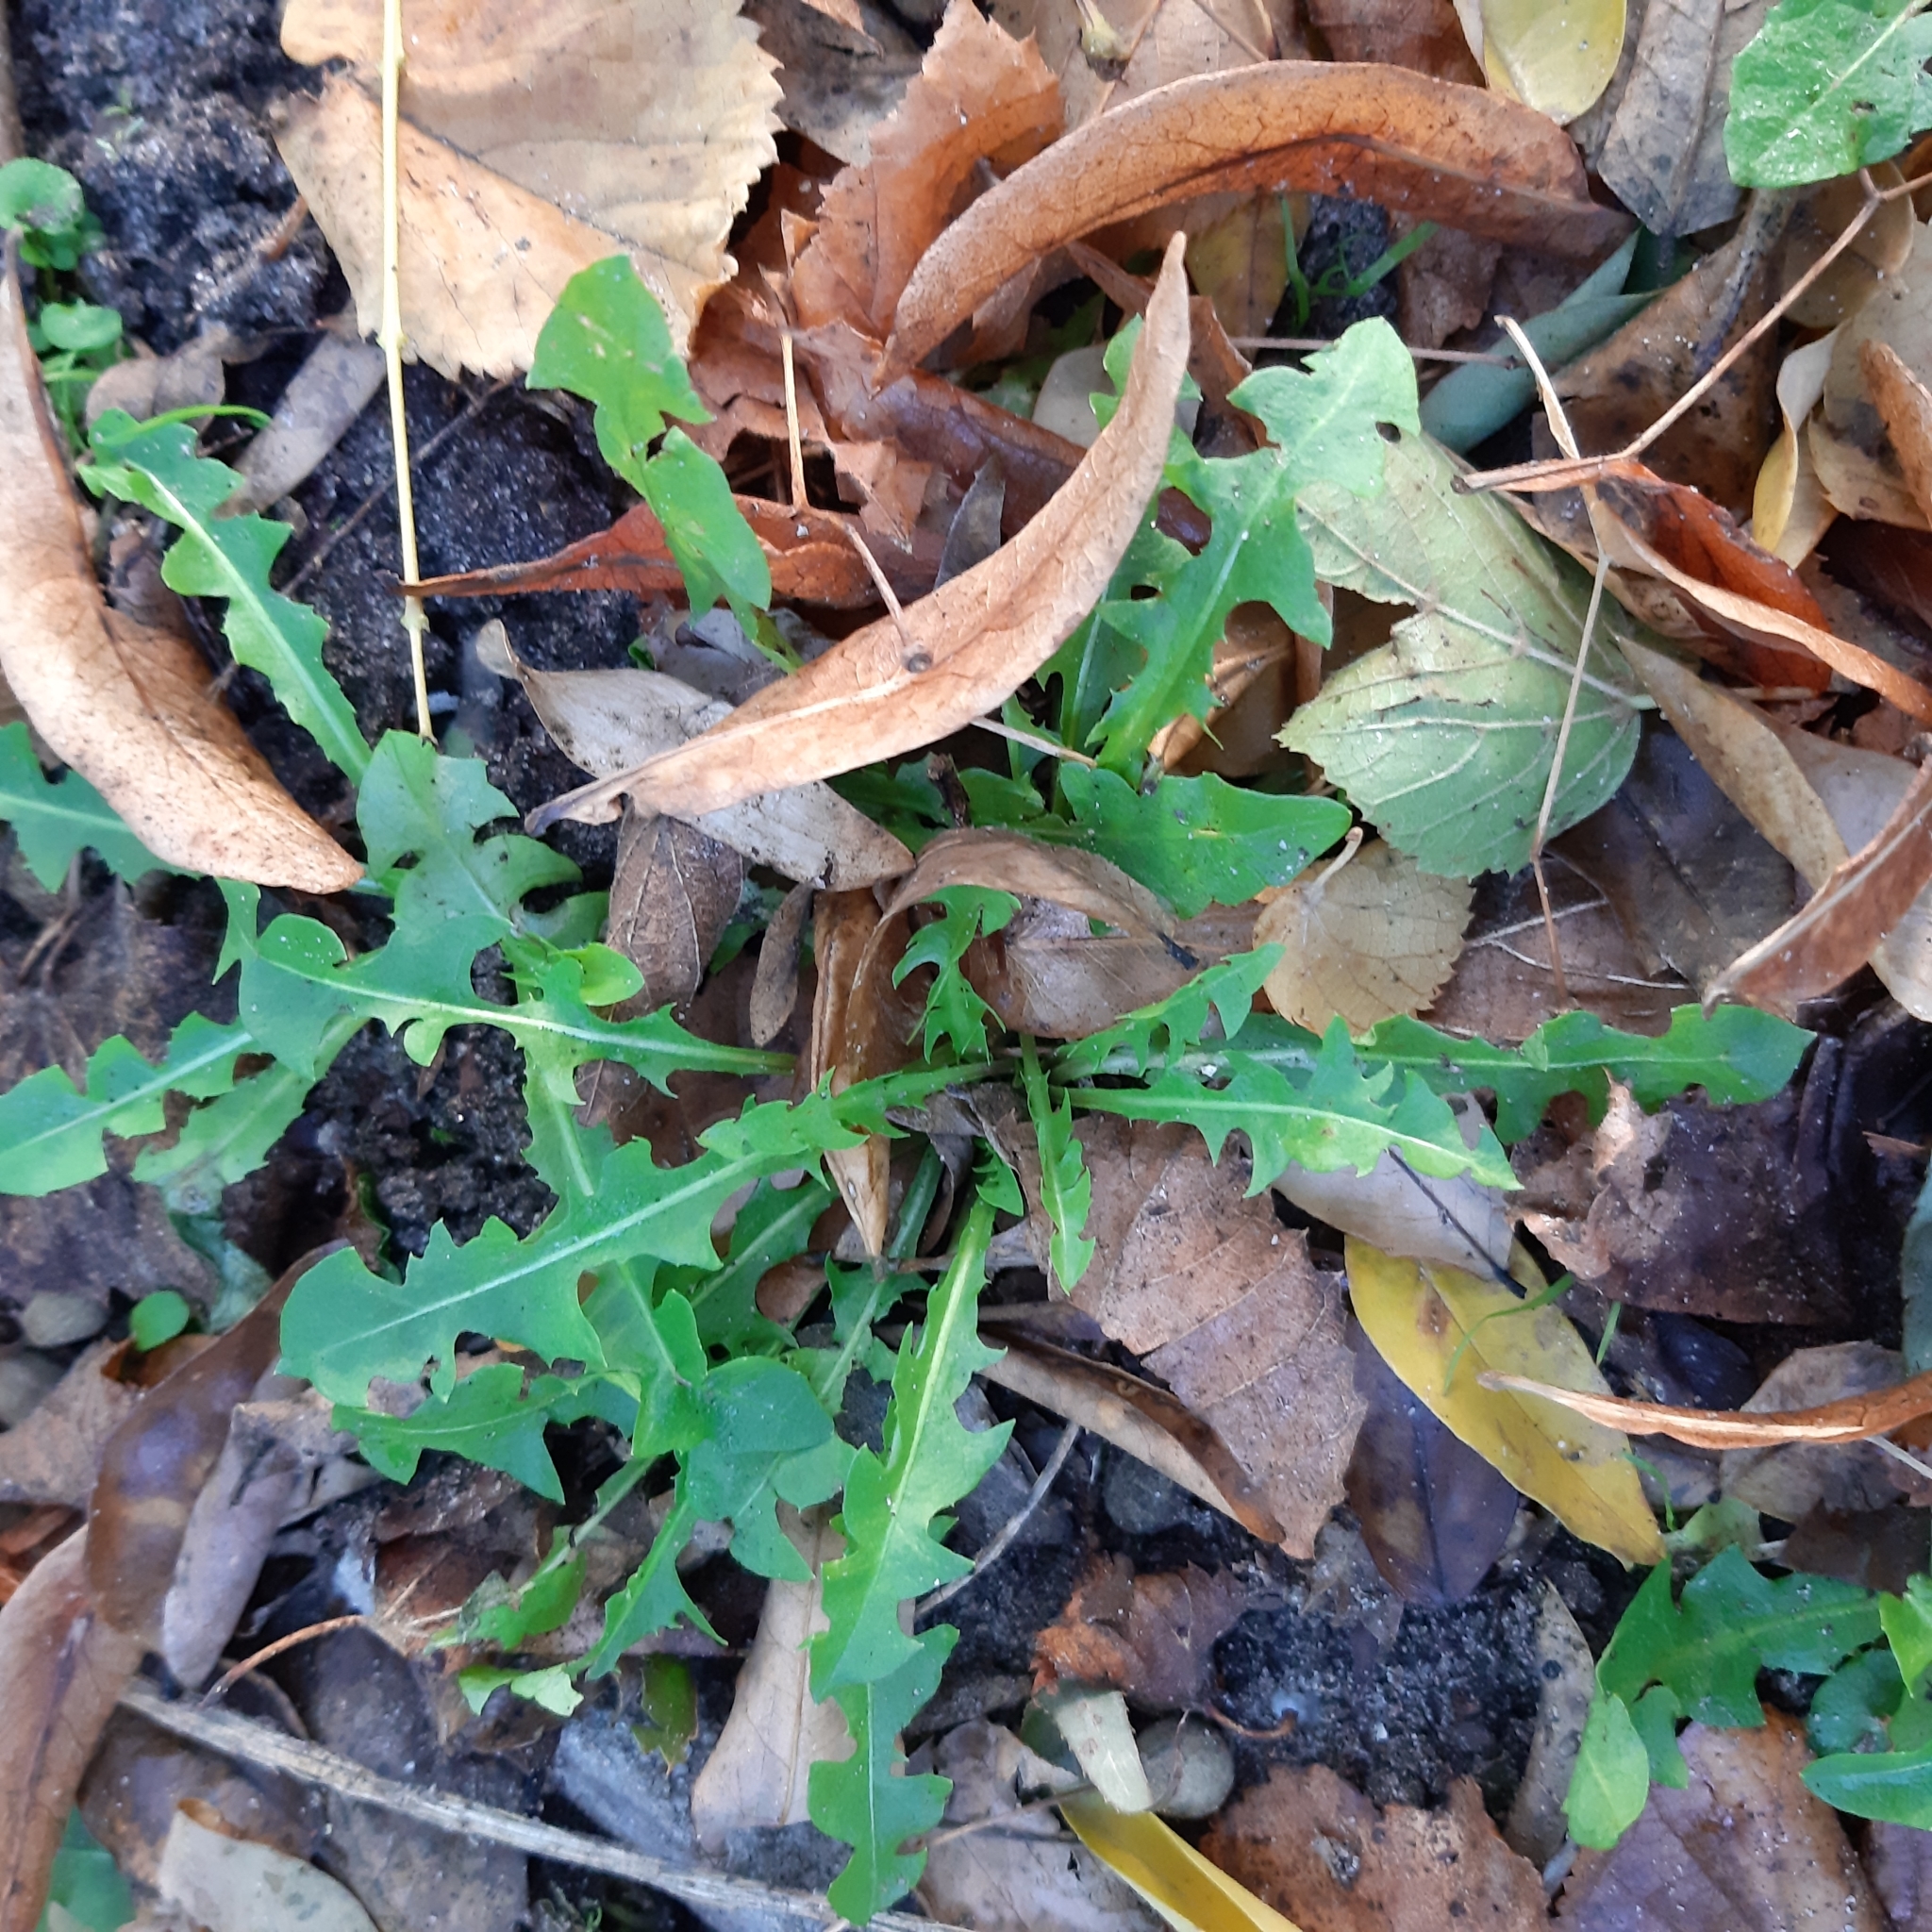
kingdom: Plantae
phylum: Tracheophyta
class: Magnoliopsida
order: Asterales
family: Asteraceae
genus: Taraxacum
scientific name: Taraxacum officinale
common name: Common dandelion
